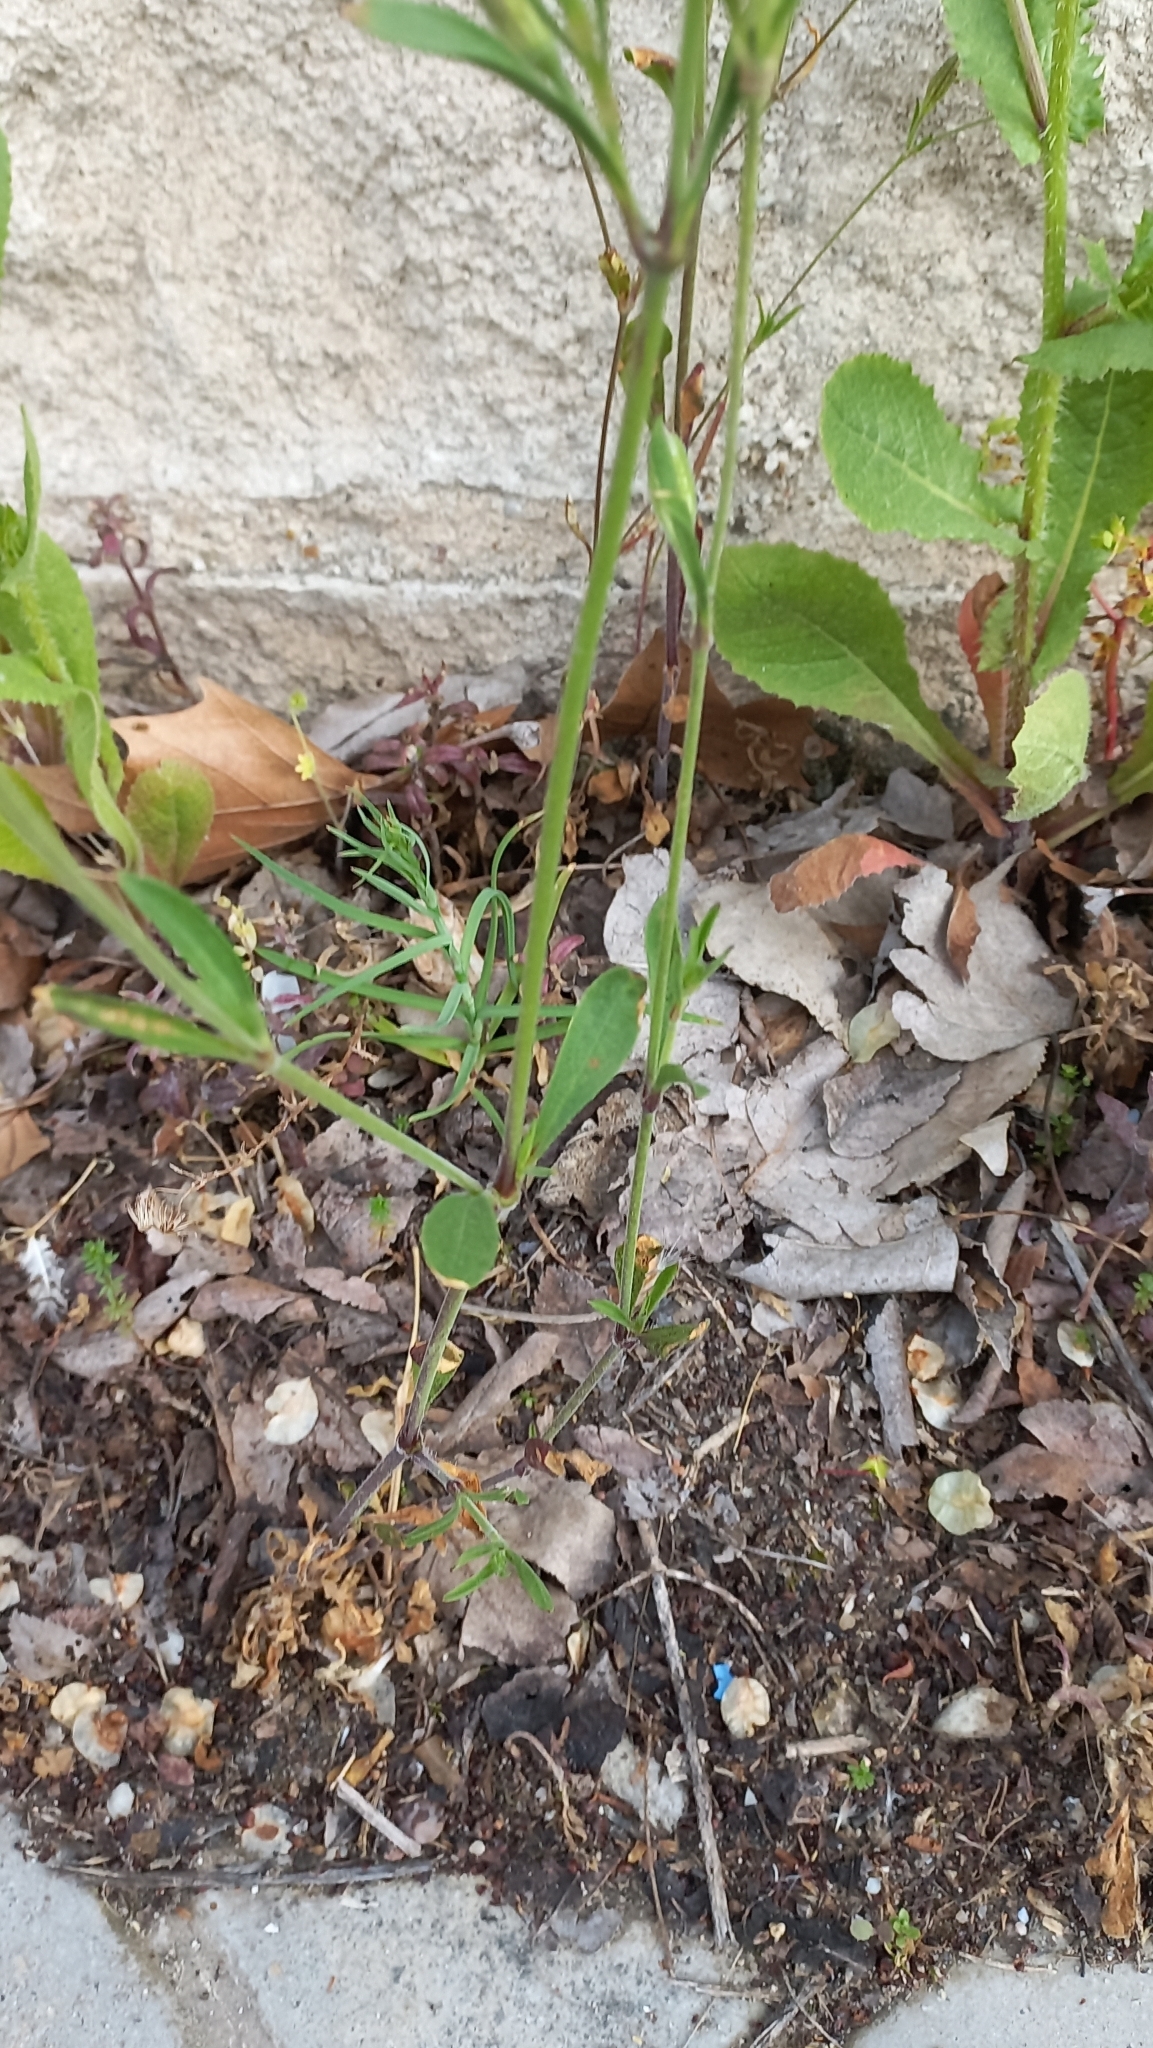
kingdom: Plantae
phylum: Tracheophyta
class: Magnoliopsida
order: Caryophyllales
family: Caryophyllaceae
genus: Silene
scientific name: Silene nocturna
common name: Mediterranean catchfly
